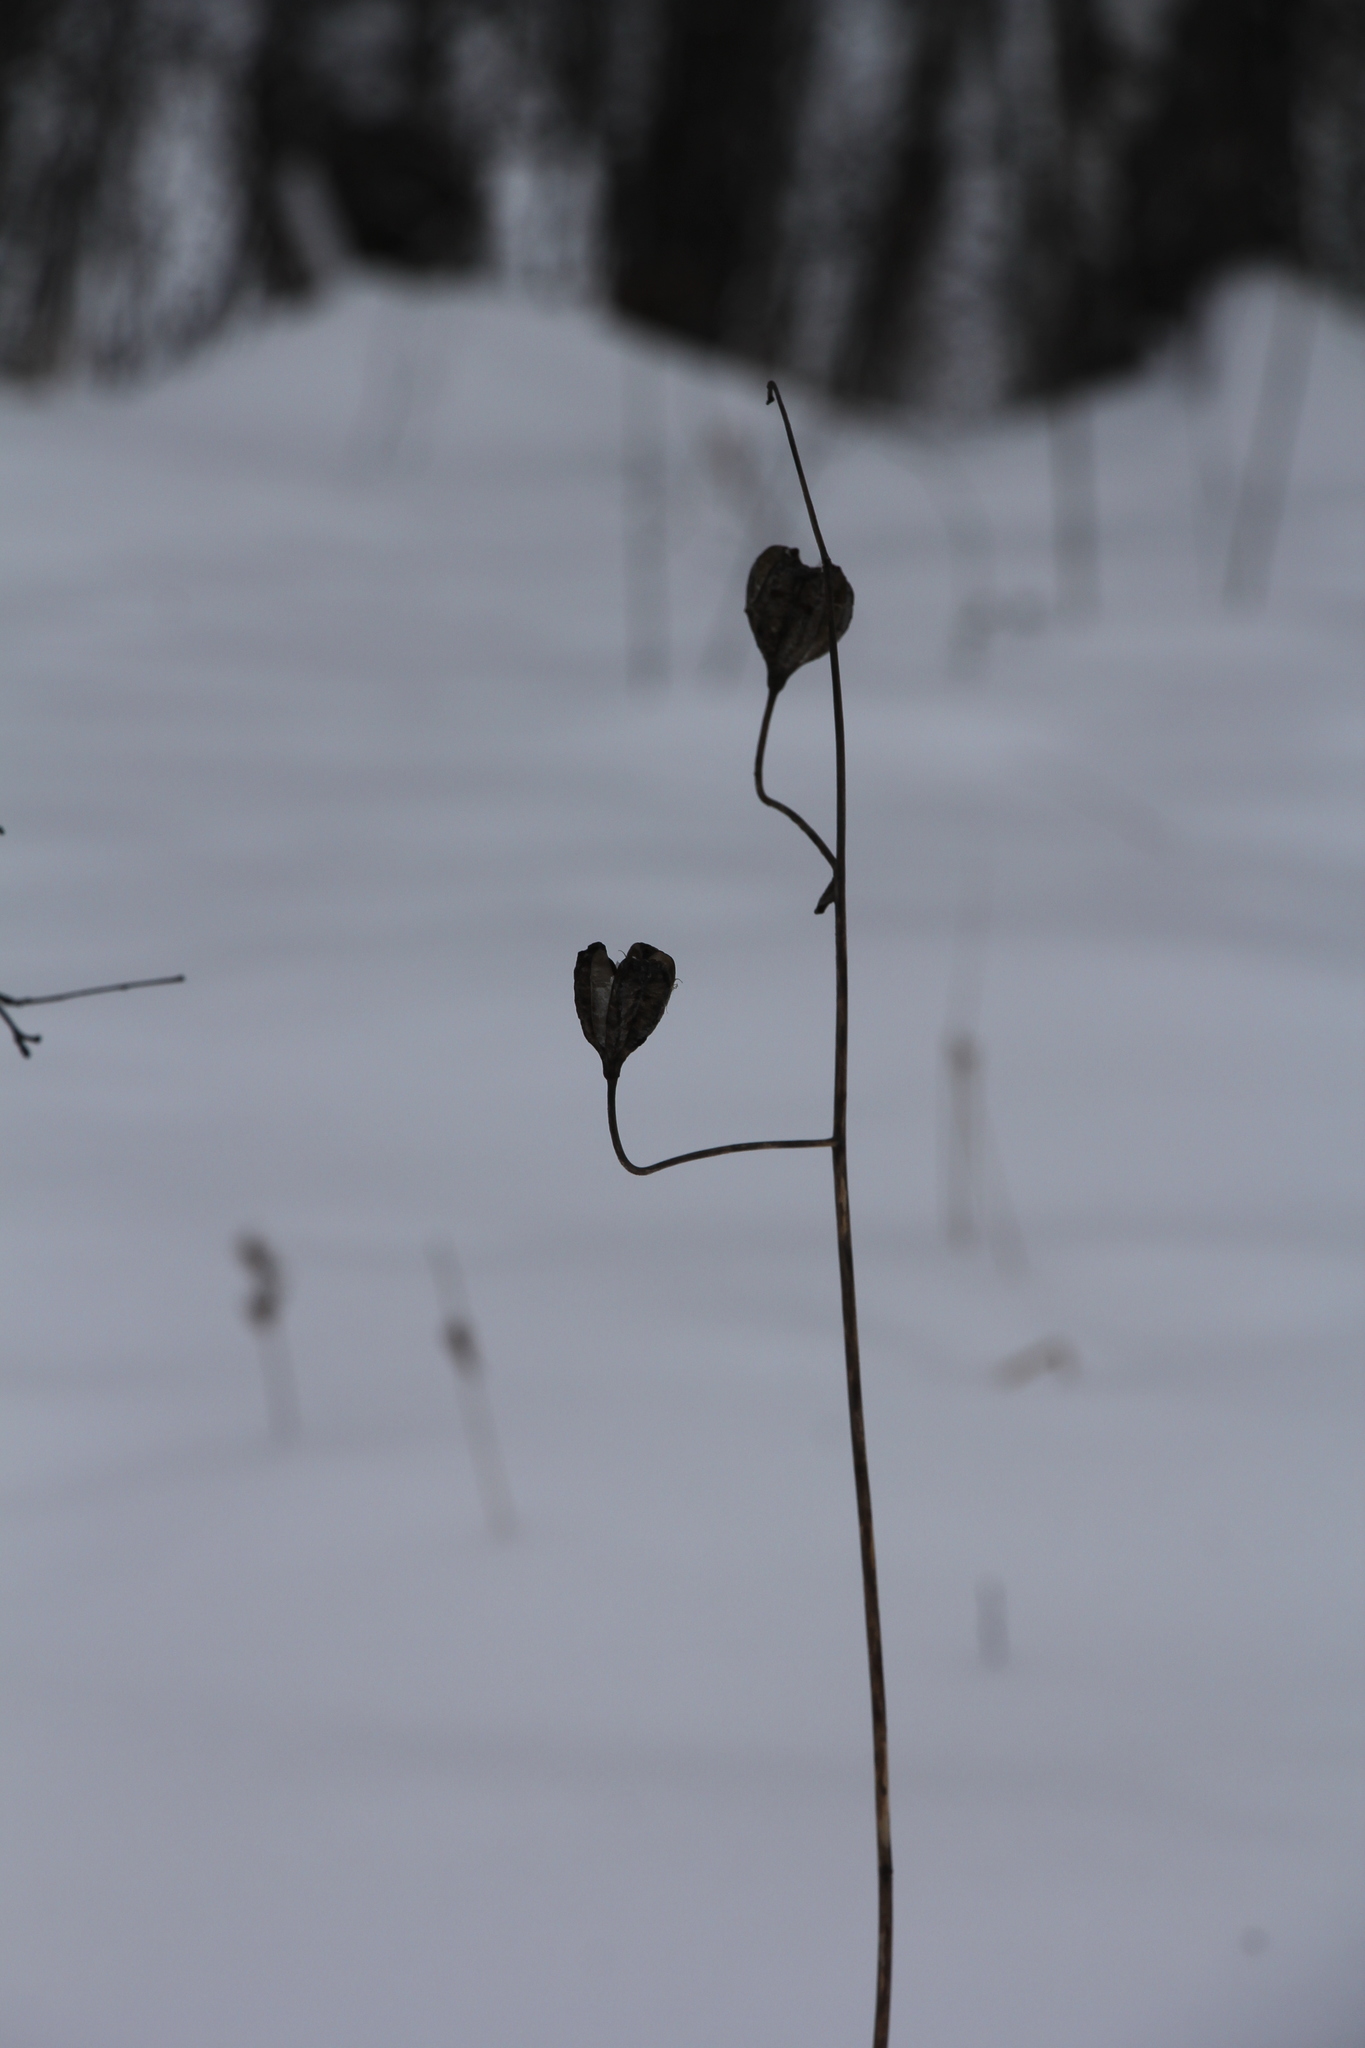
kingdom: Plantae
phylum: Tracheophyta
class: Liliopsida
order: Liliales
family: Liliaceae
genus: Lilium
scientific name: Lilium martagon
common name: Martagon lily
